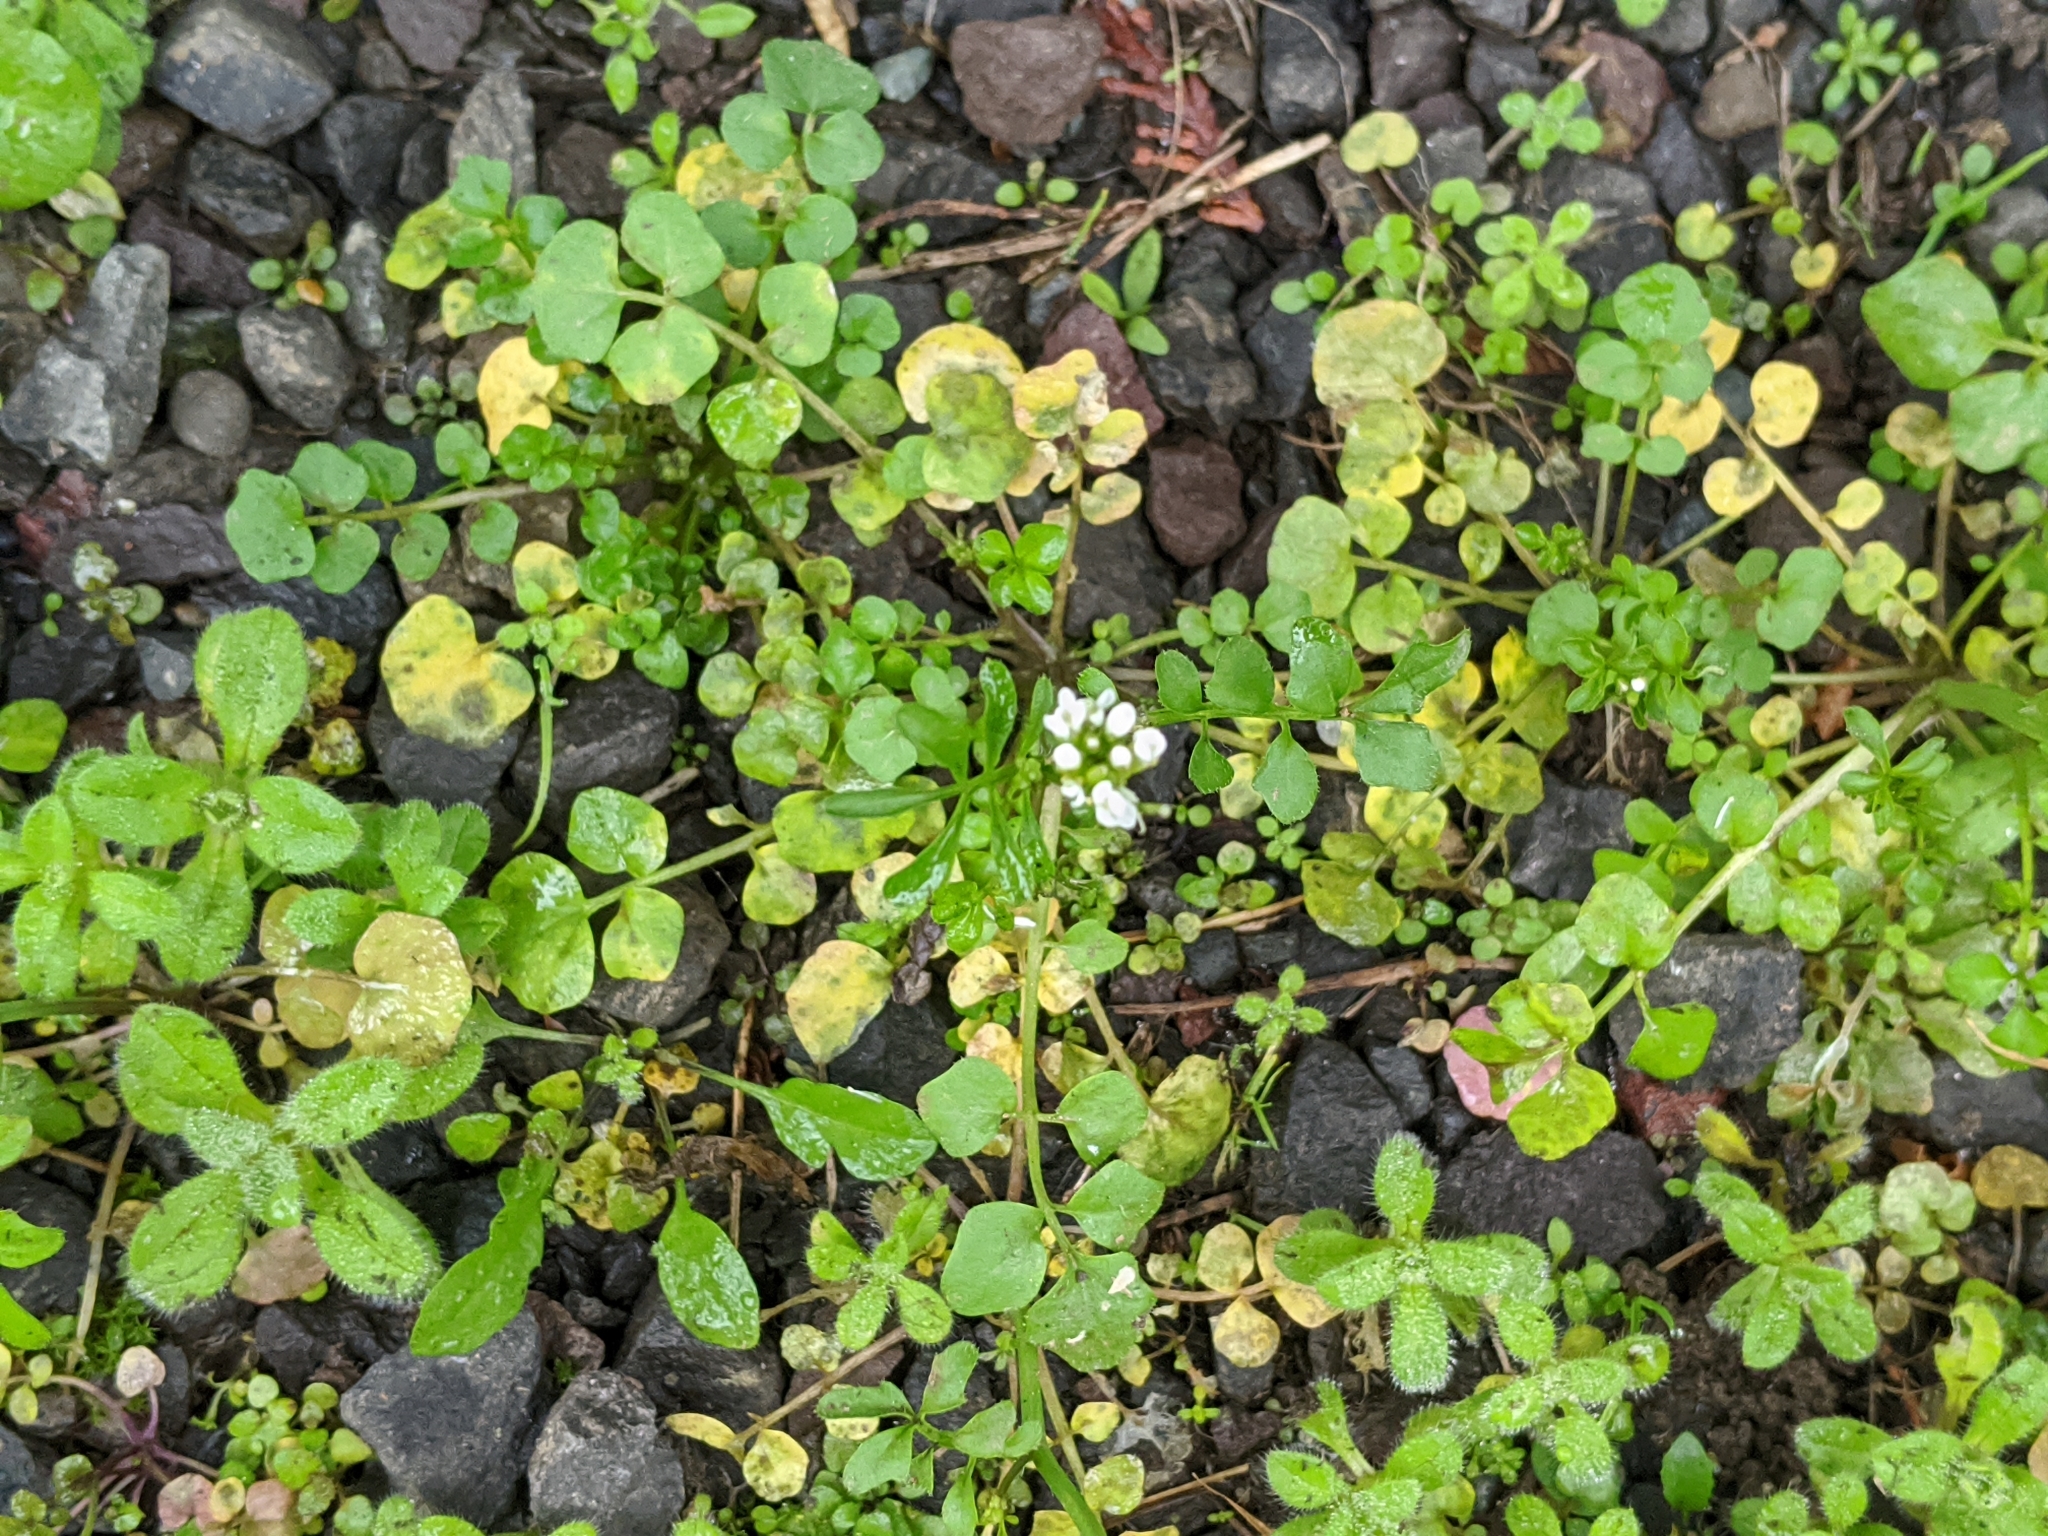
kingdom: Plantae
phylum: Tracheophyta
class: Magnoliopsida
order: Brassicales
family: Brassicaceae
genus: Cardamine
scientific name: Cardamine hirsuta
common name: Hairy bittercress
